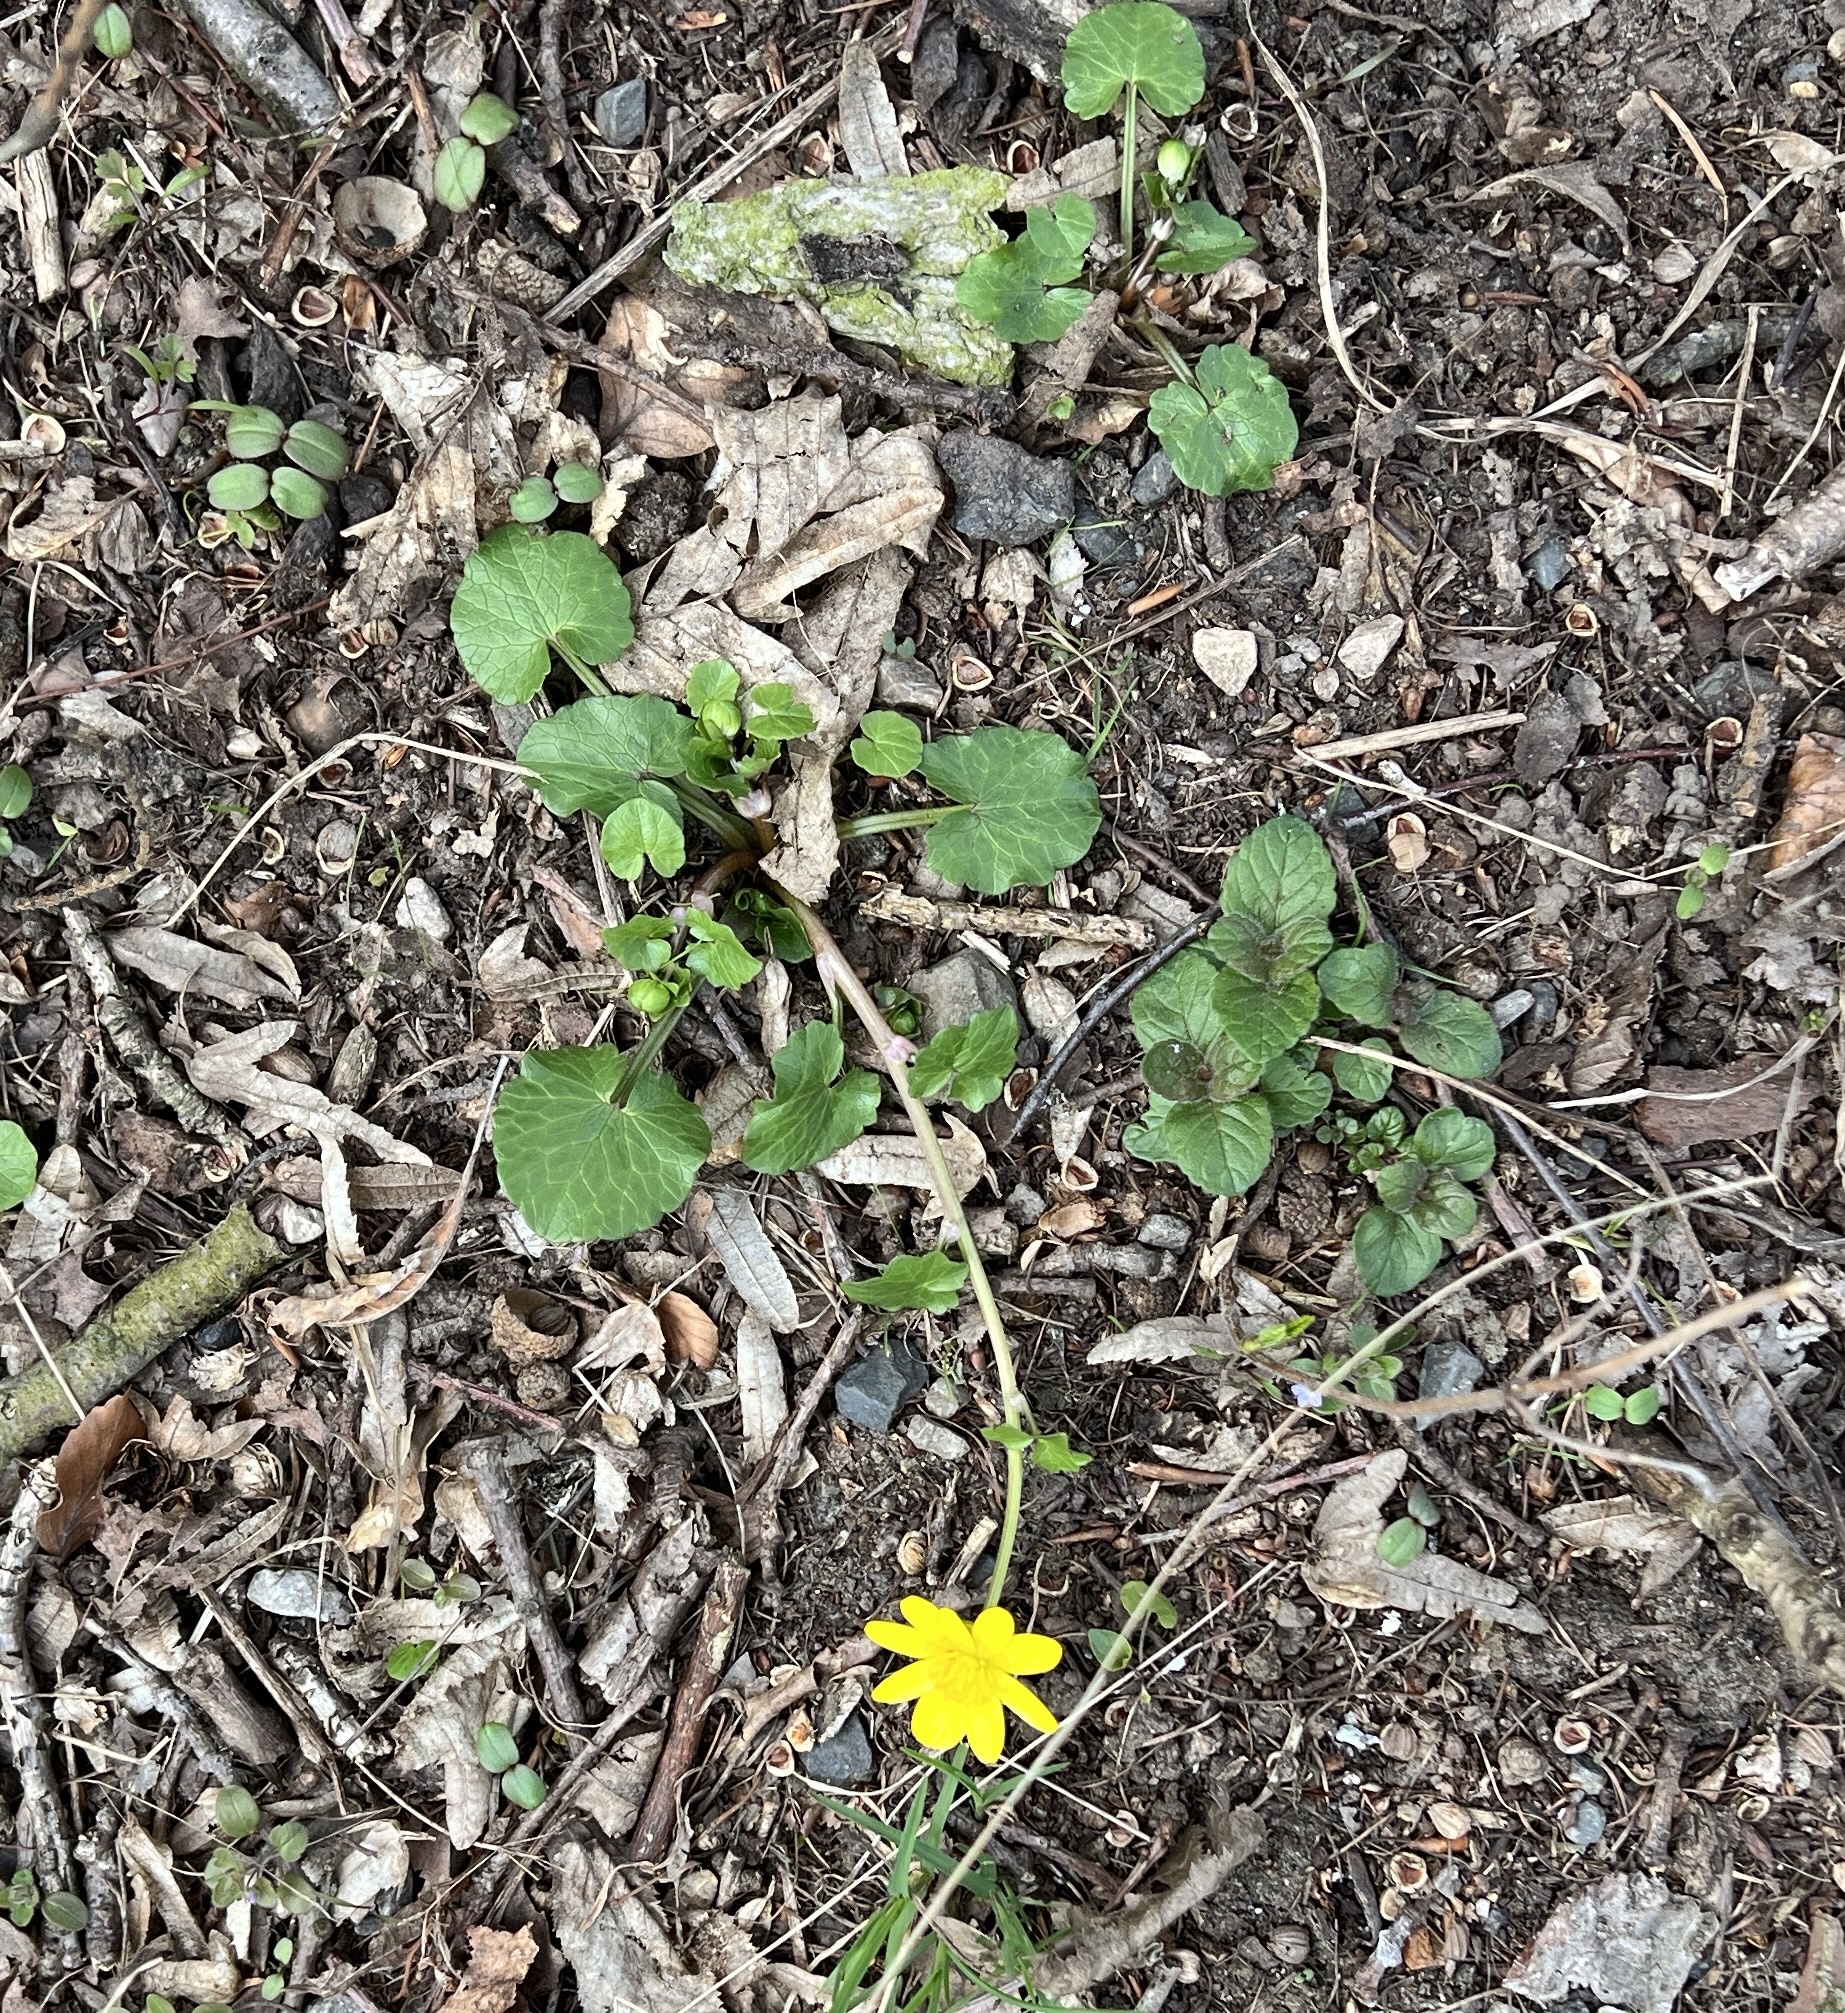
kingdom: Plantae
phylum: Tracheophyta
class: Magnoliopsida
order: Ranunculales
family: Ranunculaceae
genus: Ficaria
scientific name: Ficaria verna
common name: Lesser celandine
